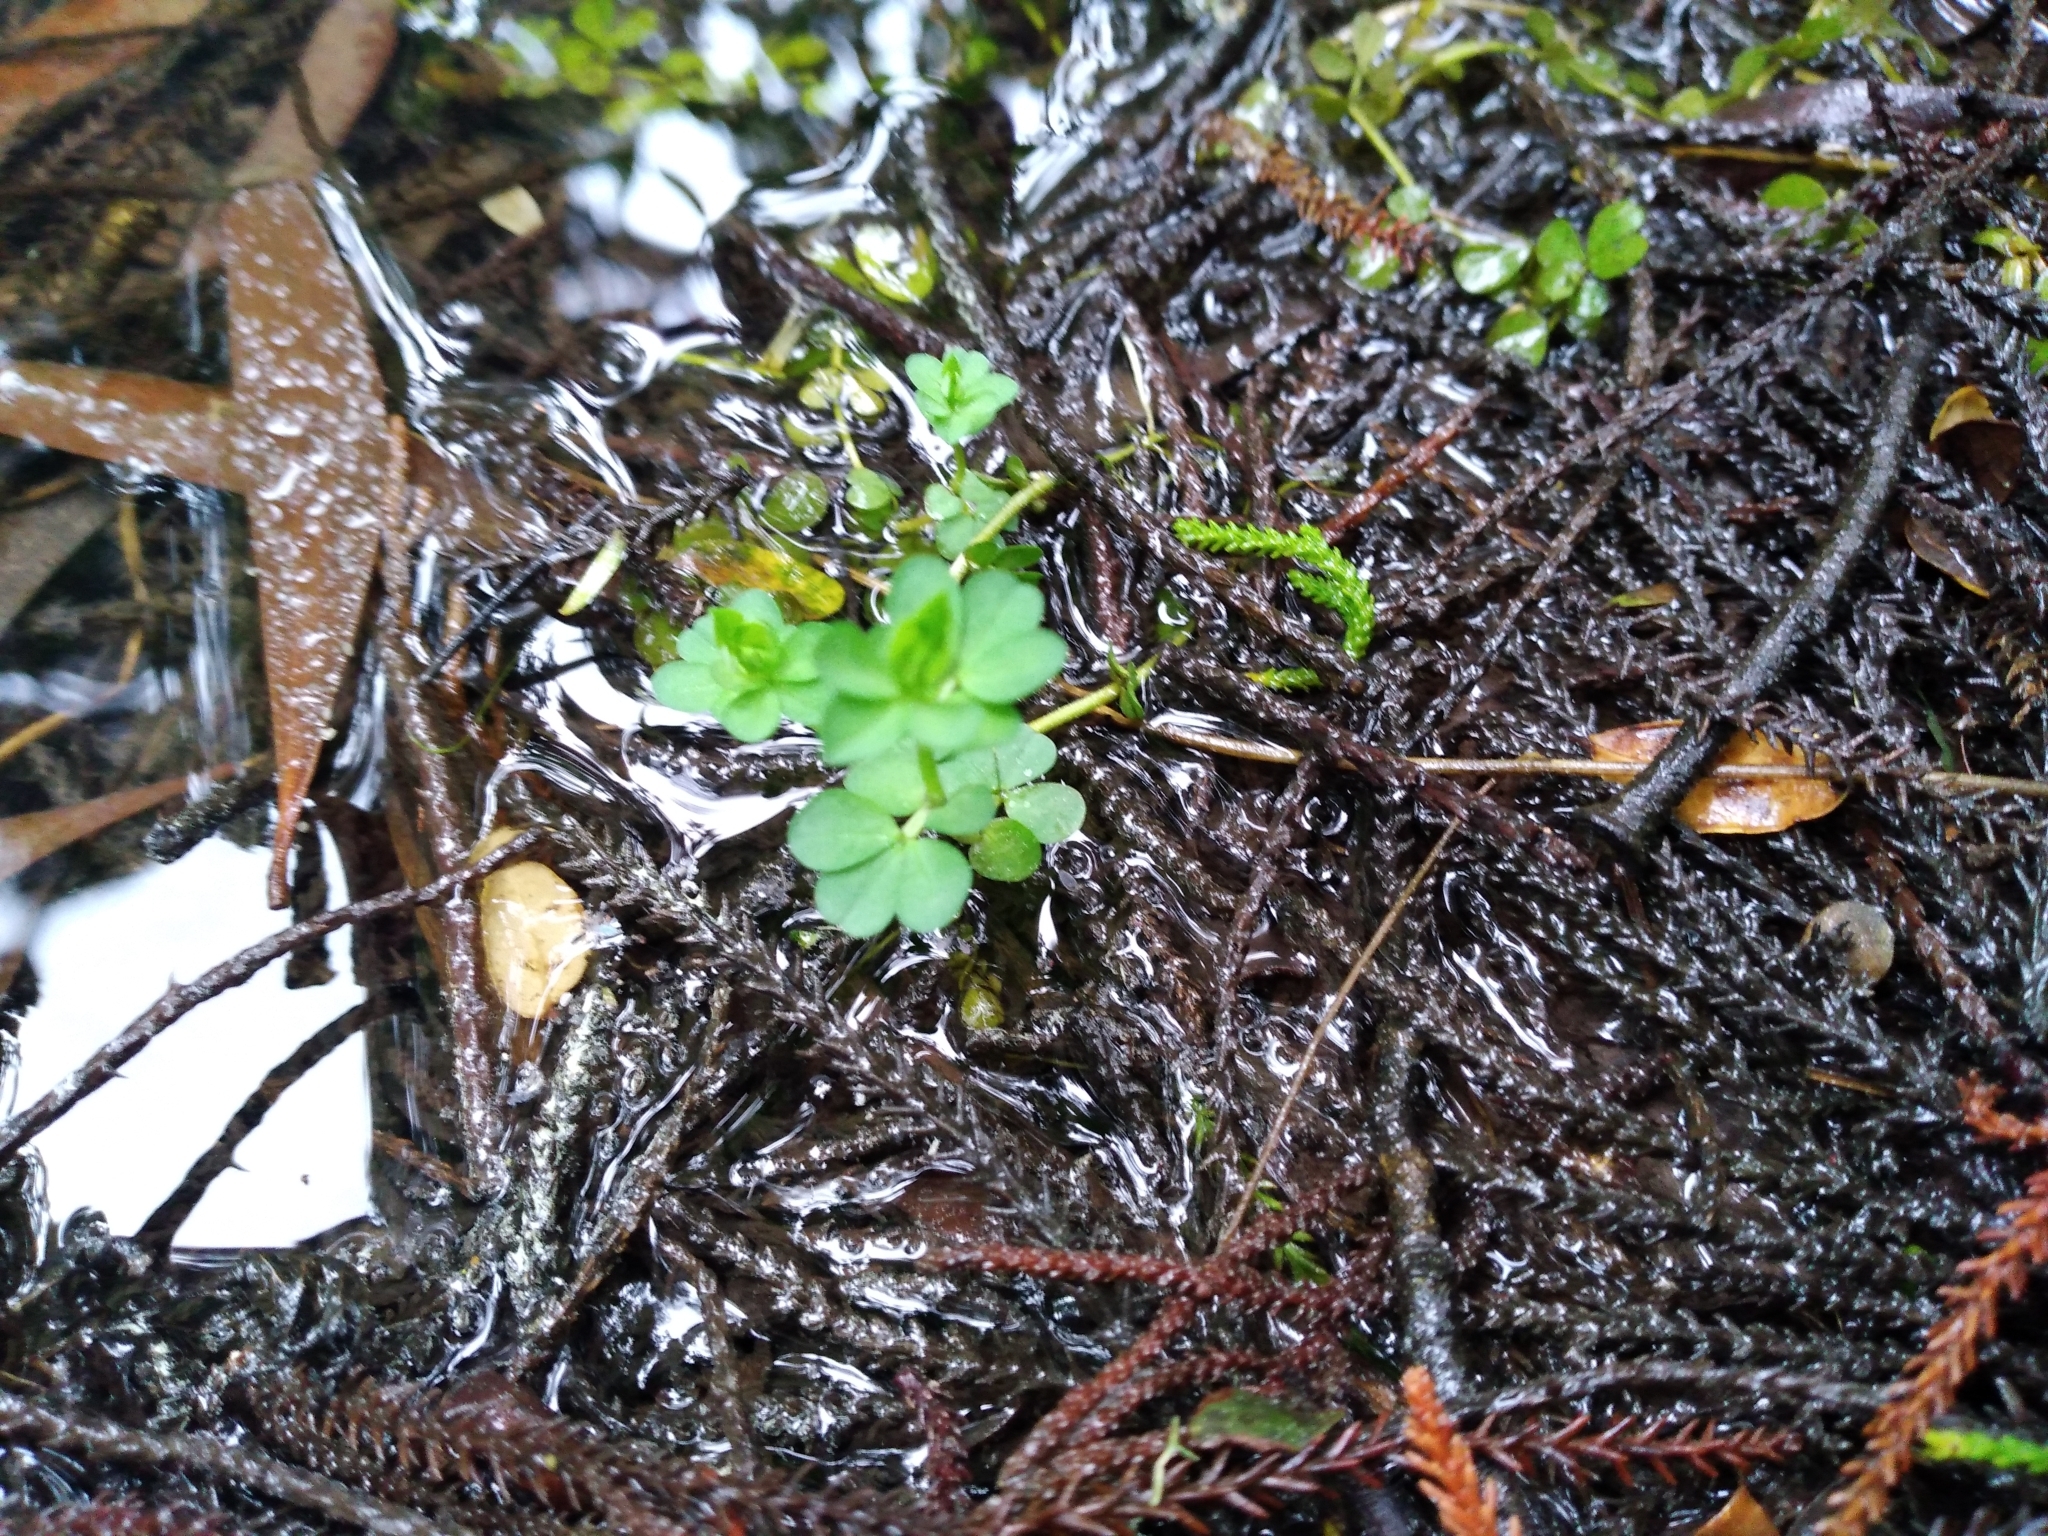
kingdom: Plantae
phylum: Tracheophyta
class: Magnoliopsida
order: Fabales
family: Fabaceae
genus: Lotus
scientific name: Lotus pedunculatus
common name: Greater birdsfoot-trefoil
